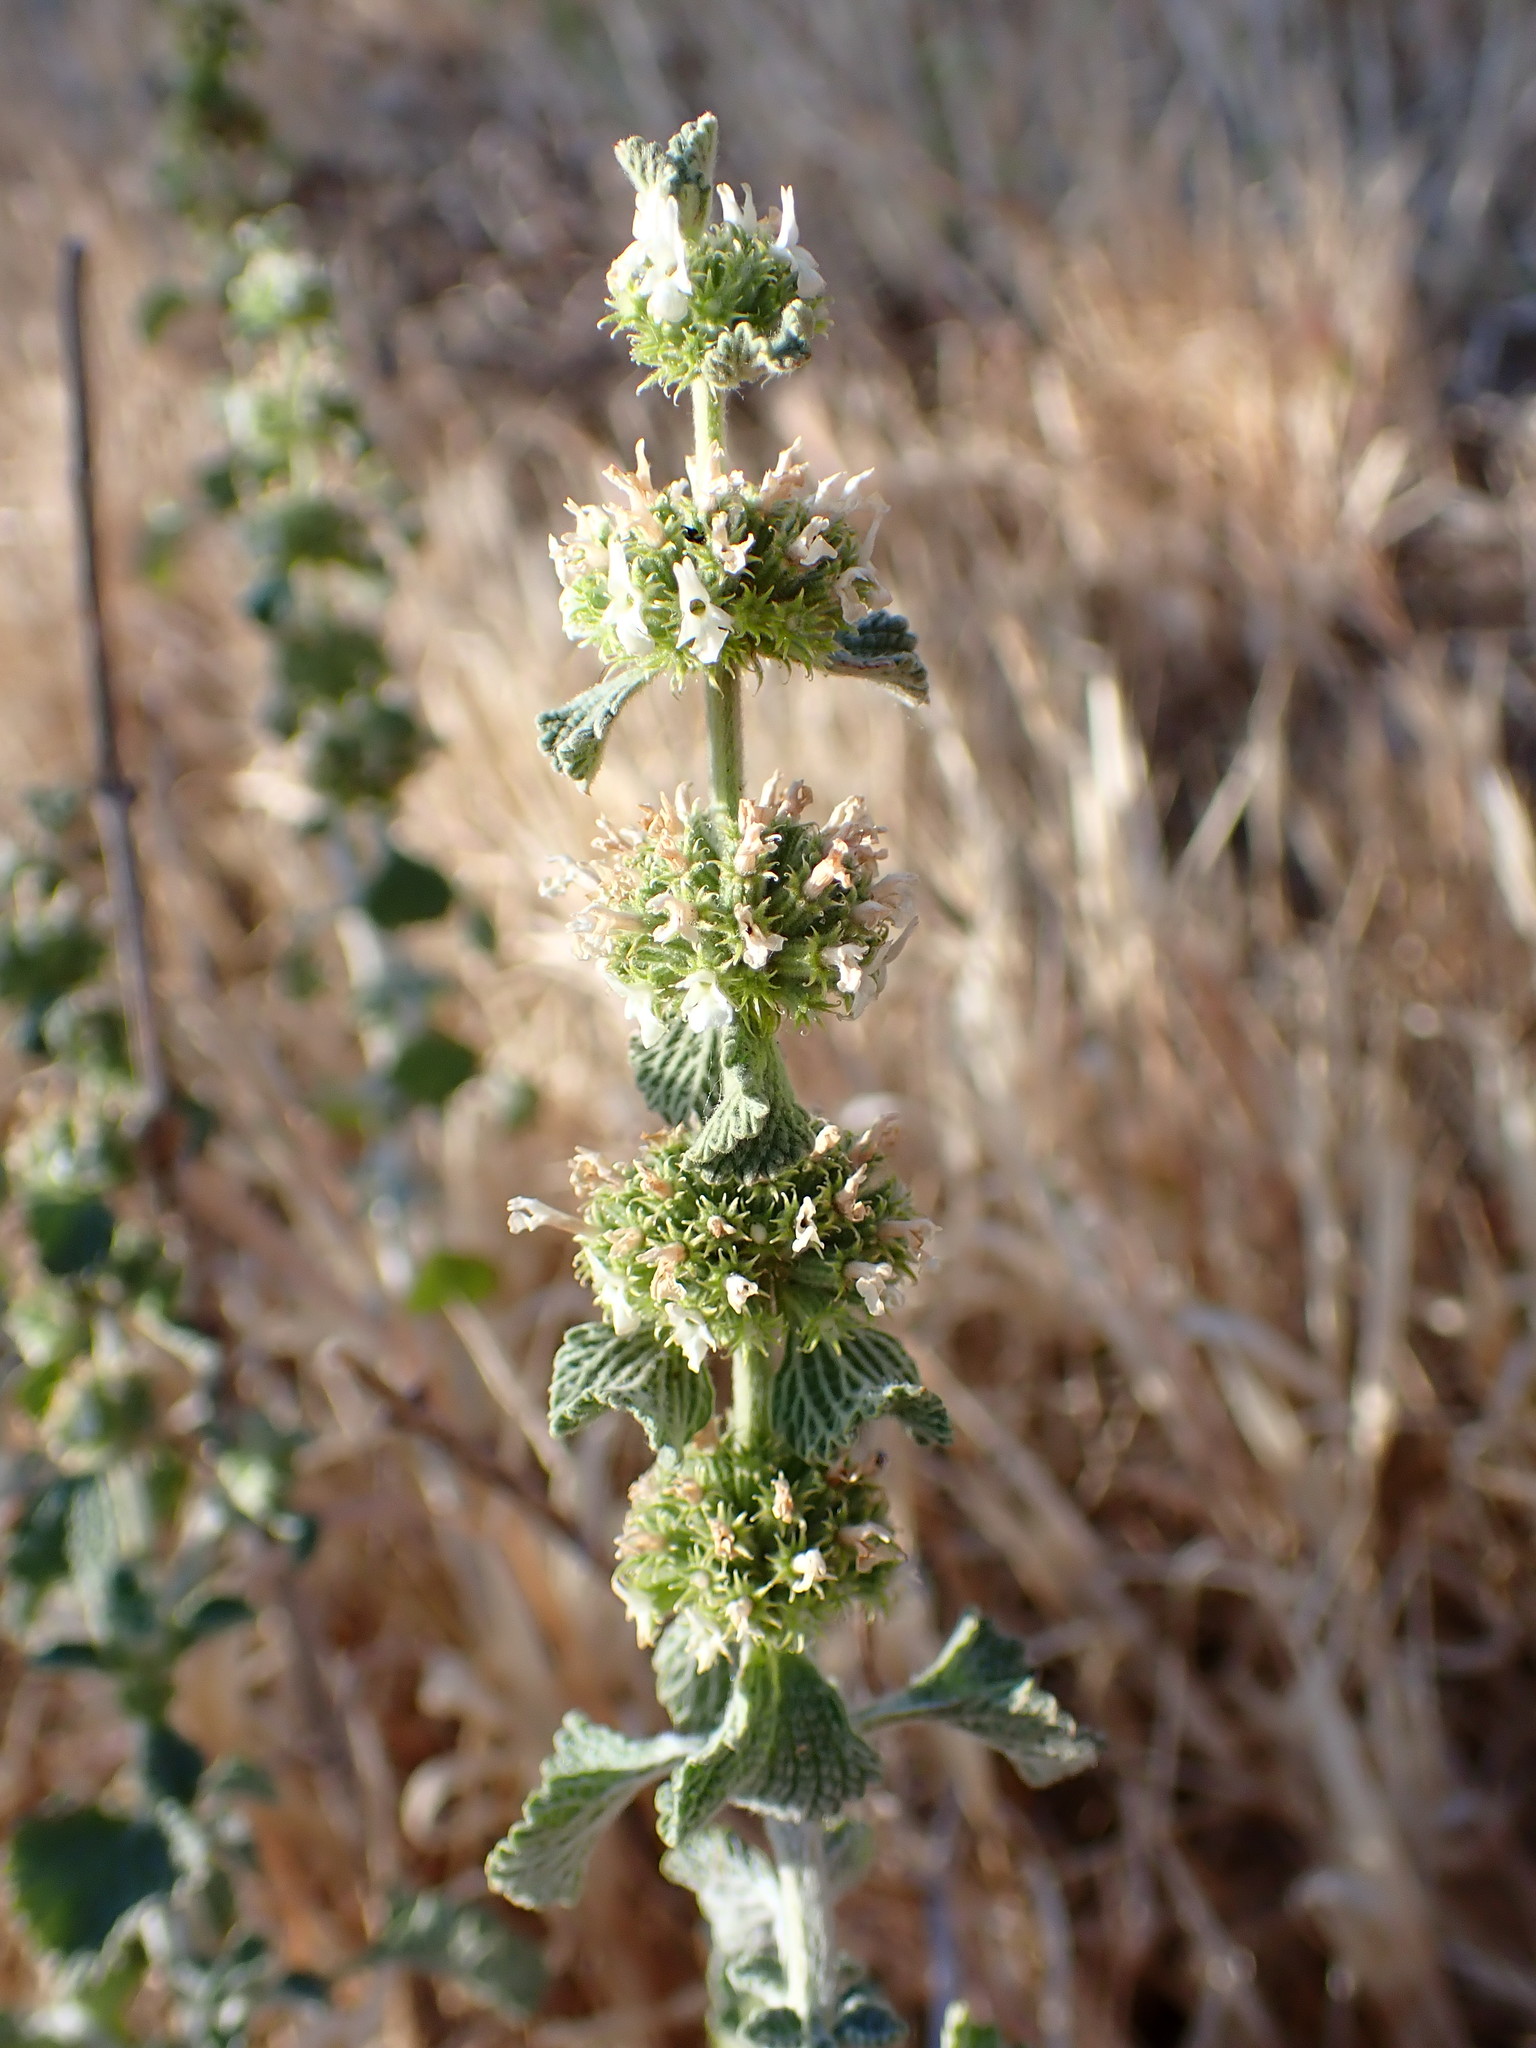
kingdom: Plantae
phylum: Tracheophyta
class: Magnoliopsida
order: Lamiales
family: Lamiaceae
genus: Marrubium
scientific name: Marrubium vulgare
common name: Horehound
